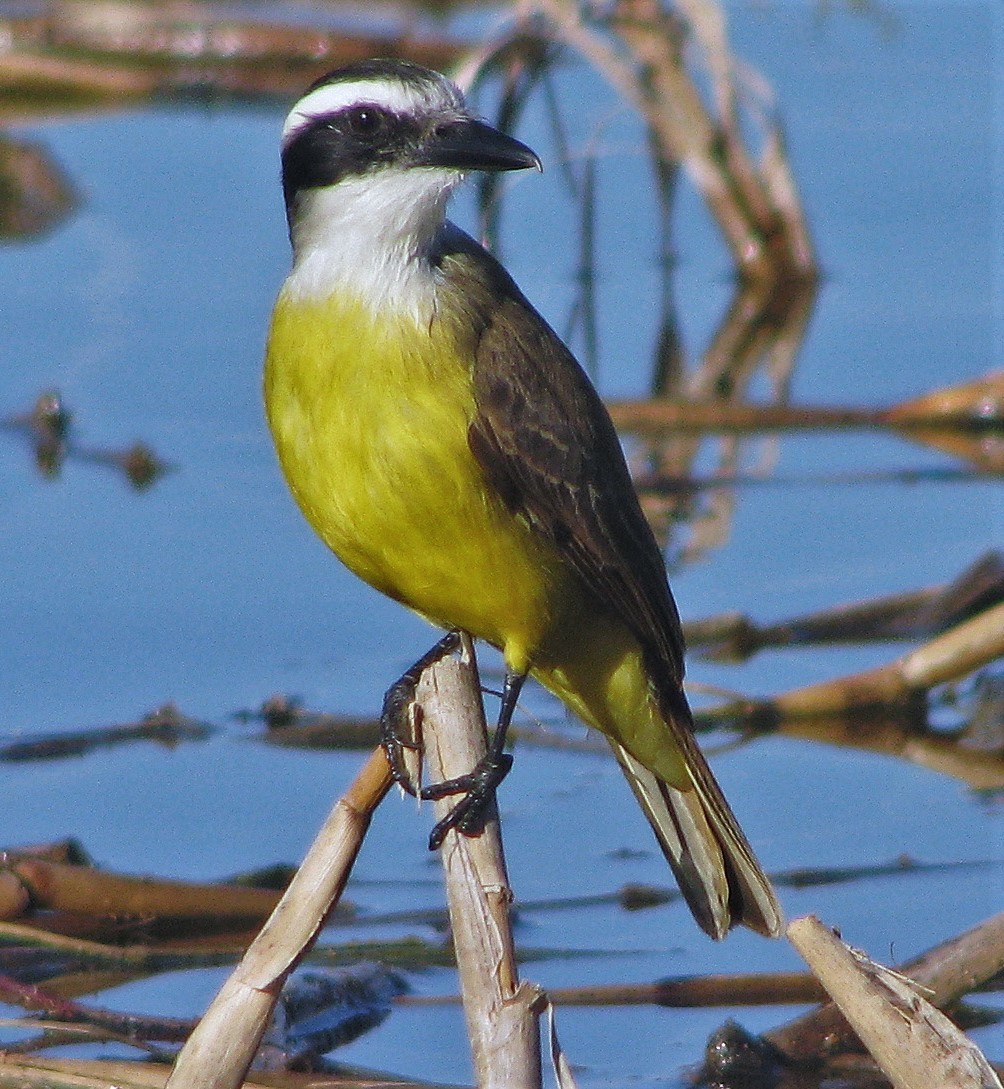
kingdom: Animalia
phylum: Chordata
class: Aves
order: Passeriformes
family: Tyrannidae
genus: Pitangus
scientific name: Pitangus sulphuratus
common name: Great kiskadee
